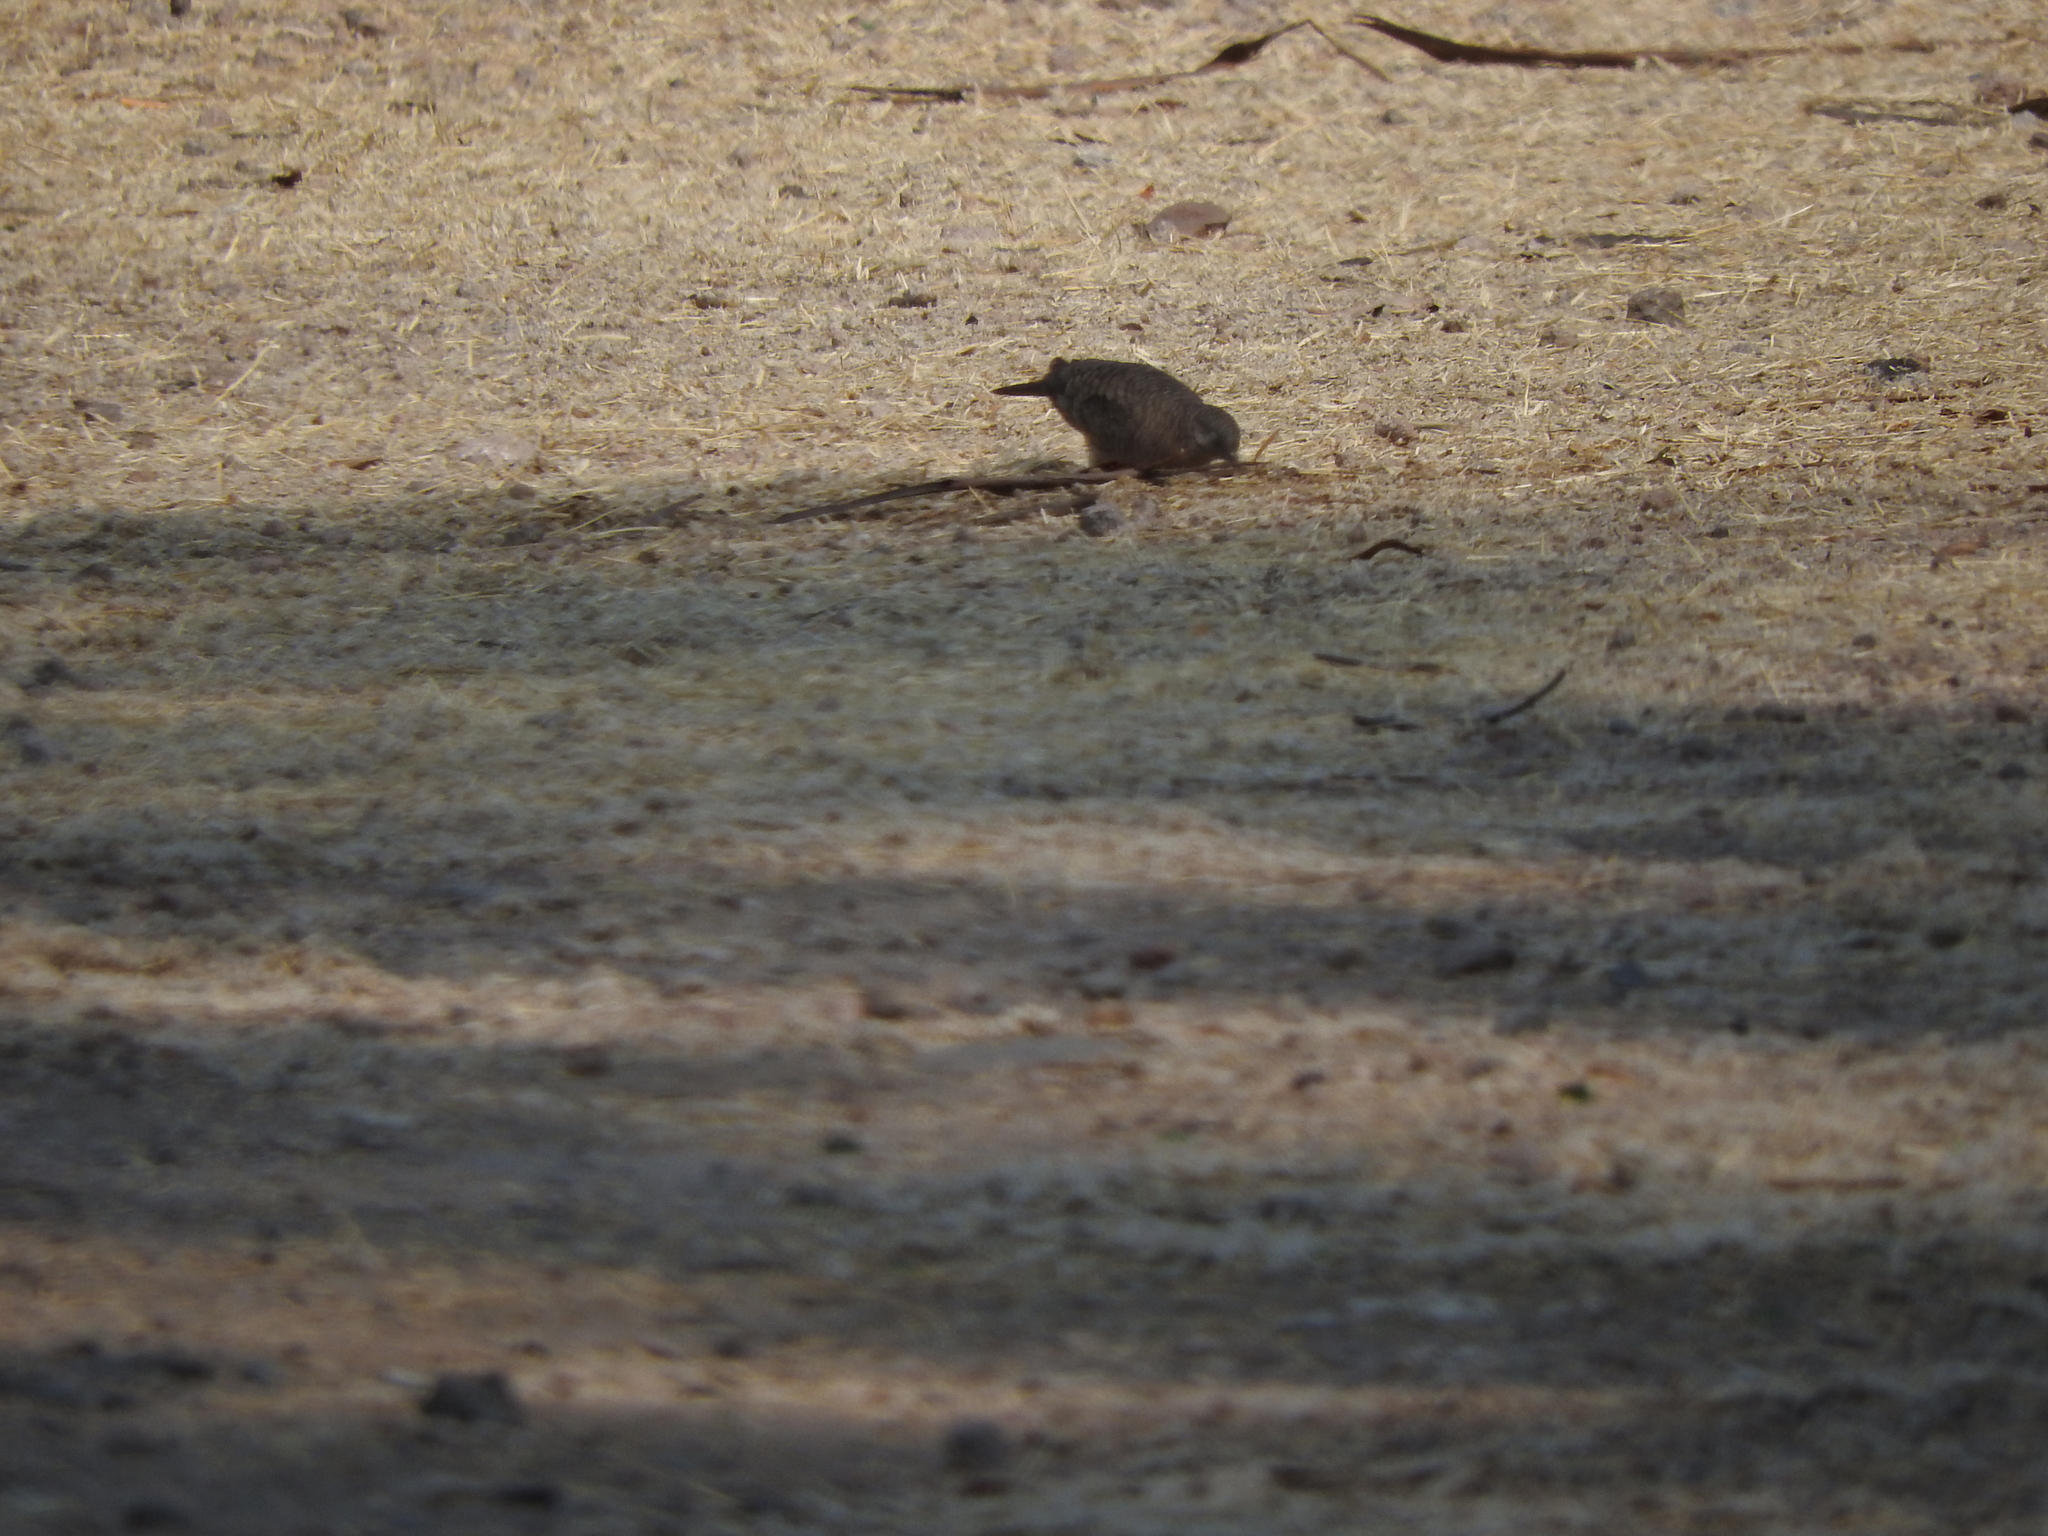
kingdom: Animalia
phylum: Chordata
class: Aves
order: Columbiformes
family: Columbidae
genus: Columbina
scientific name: Columbina inca
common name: Inca dove
